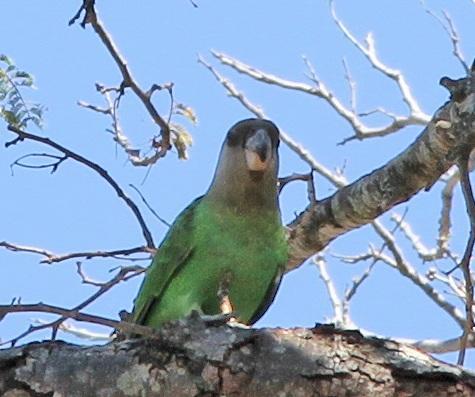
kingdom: Animalia
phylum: Chordata
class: Aves
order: Psittaciformes
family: Psittacidae
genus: Poicephalus
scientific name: Poicephalus cryptoxanthus
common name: Brown-headed parrot
